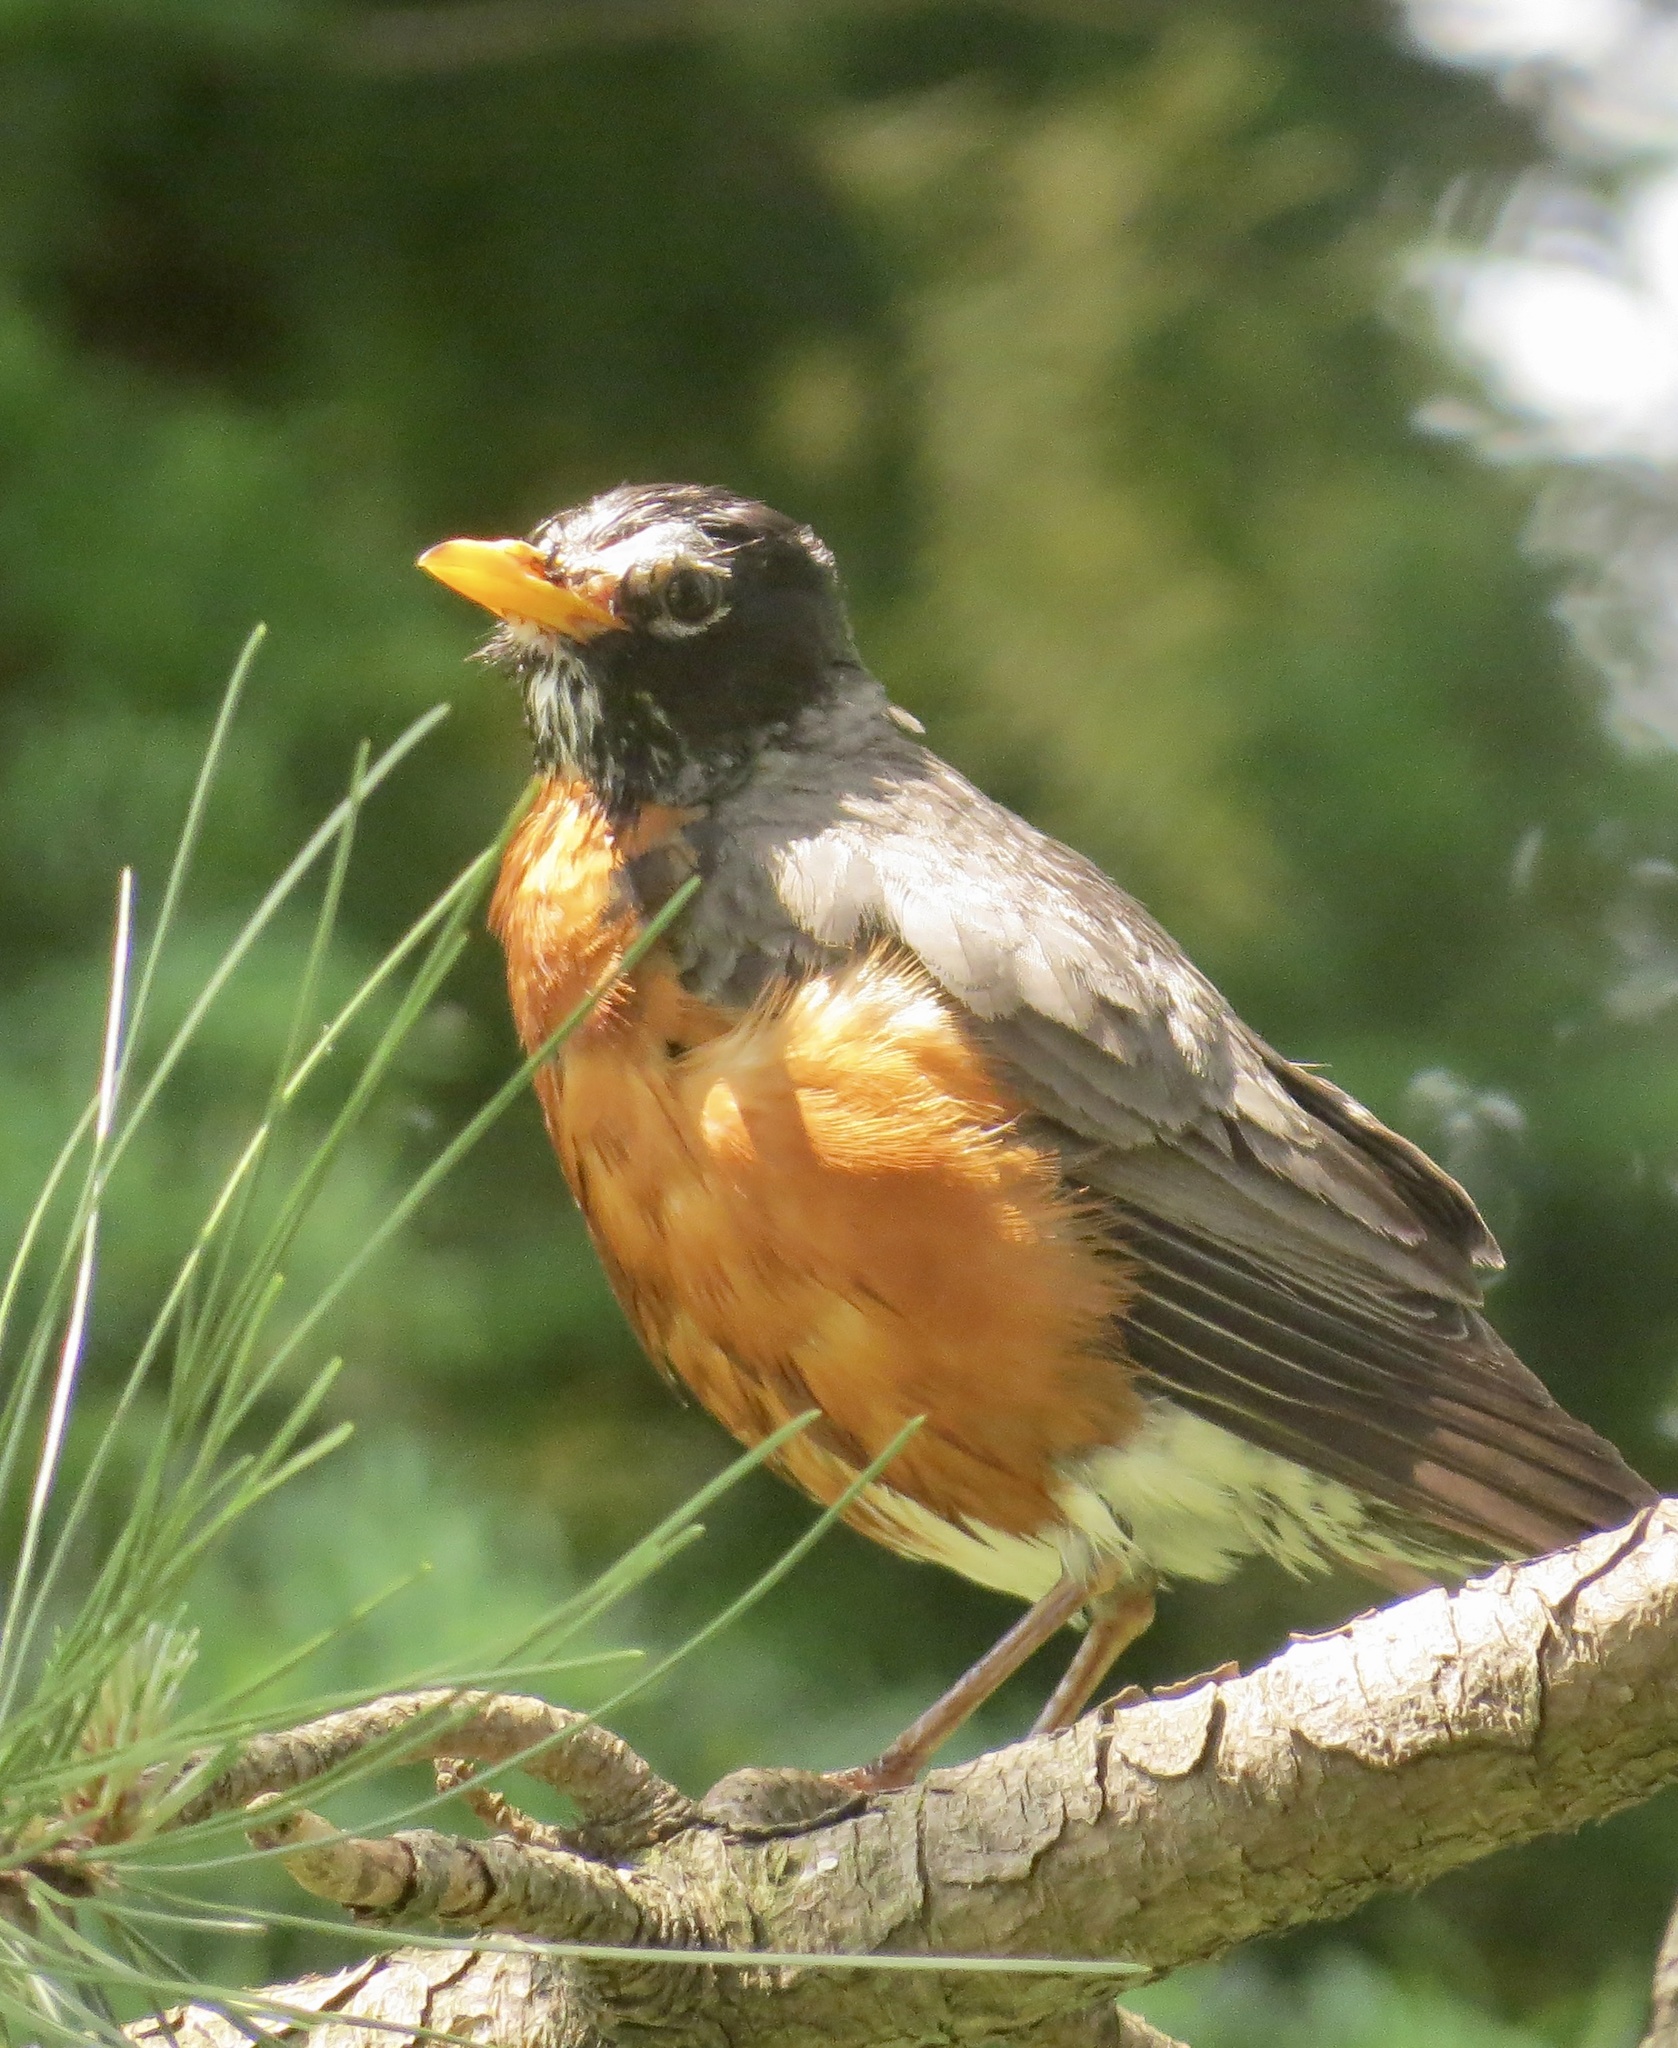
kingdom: Animalia
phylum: Chordata
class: Aves
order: Passeriformes
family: Turdidae
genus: Turdus
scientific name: Turdus migratorius
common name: American robin
